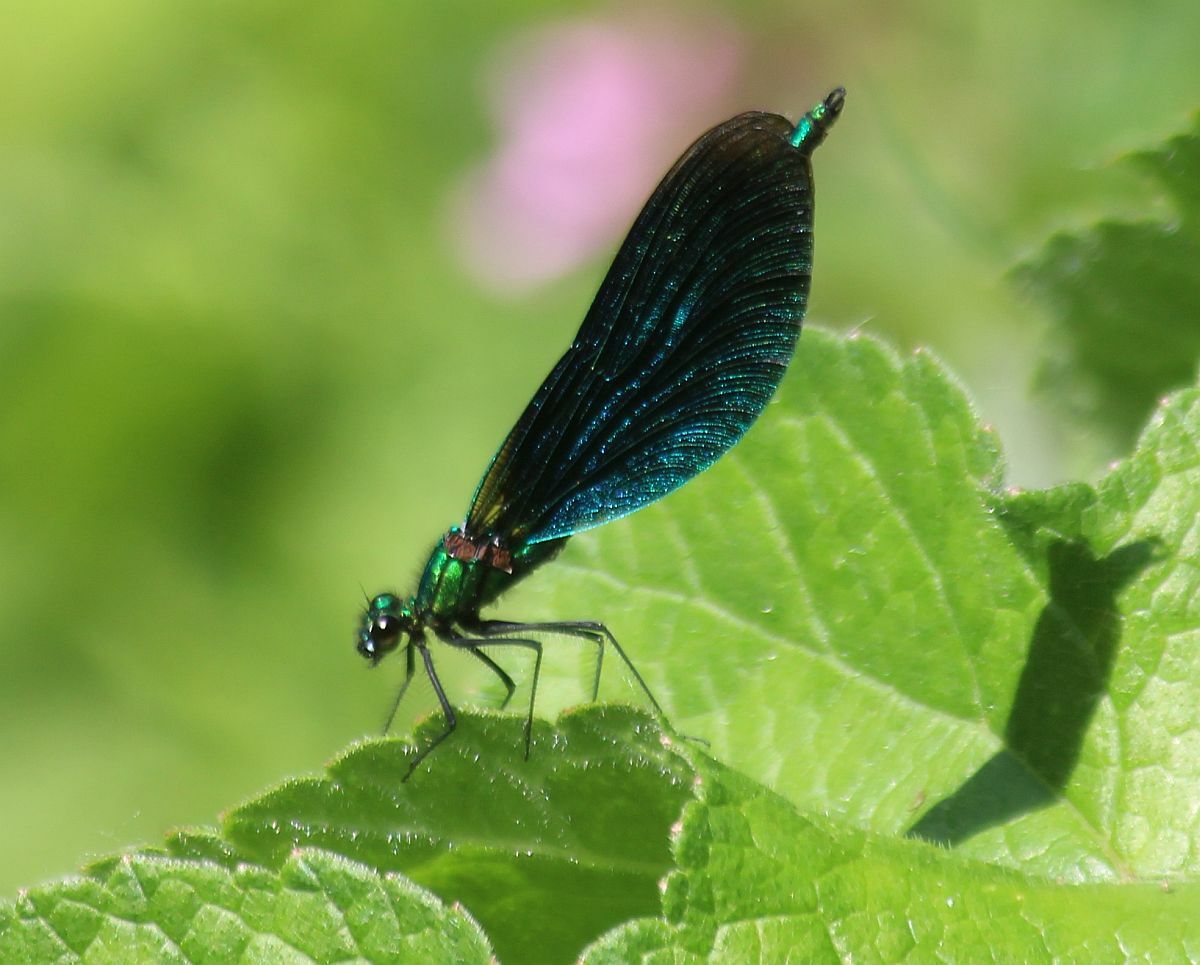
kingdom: Animalia
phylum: Arthropoda
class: Insecta
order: Odonata
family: Calopterygidae
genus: Calopteryx
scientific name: Calopteryx virgo
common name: Beautiful demoiselle
